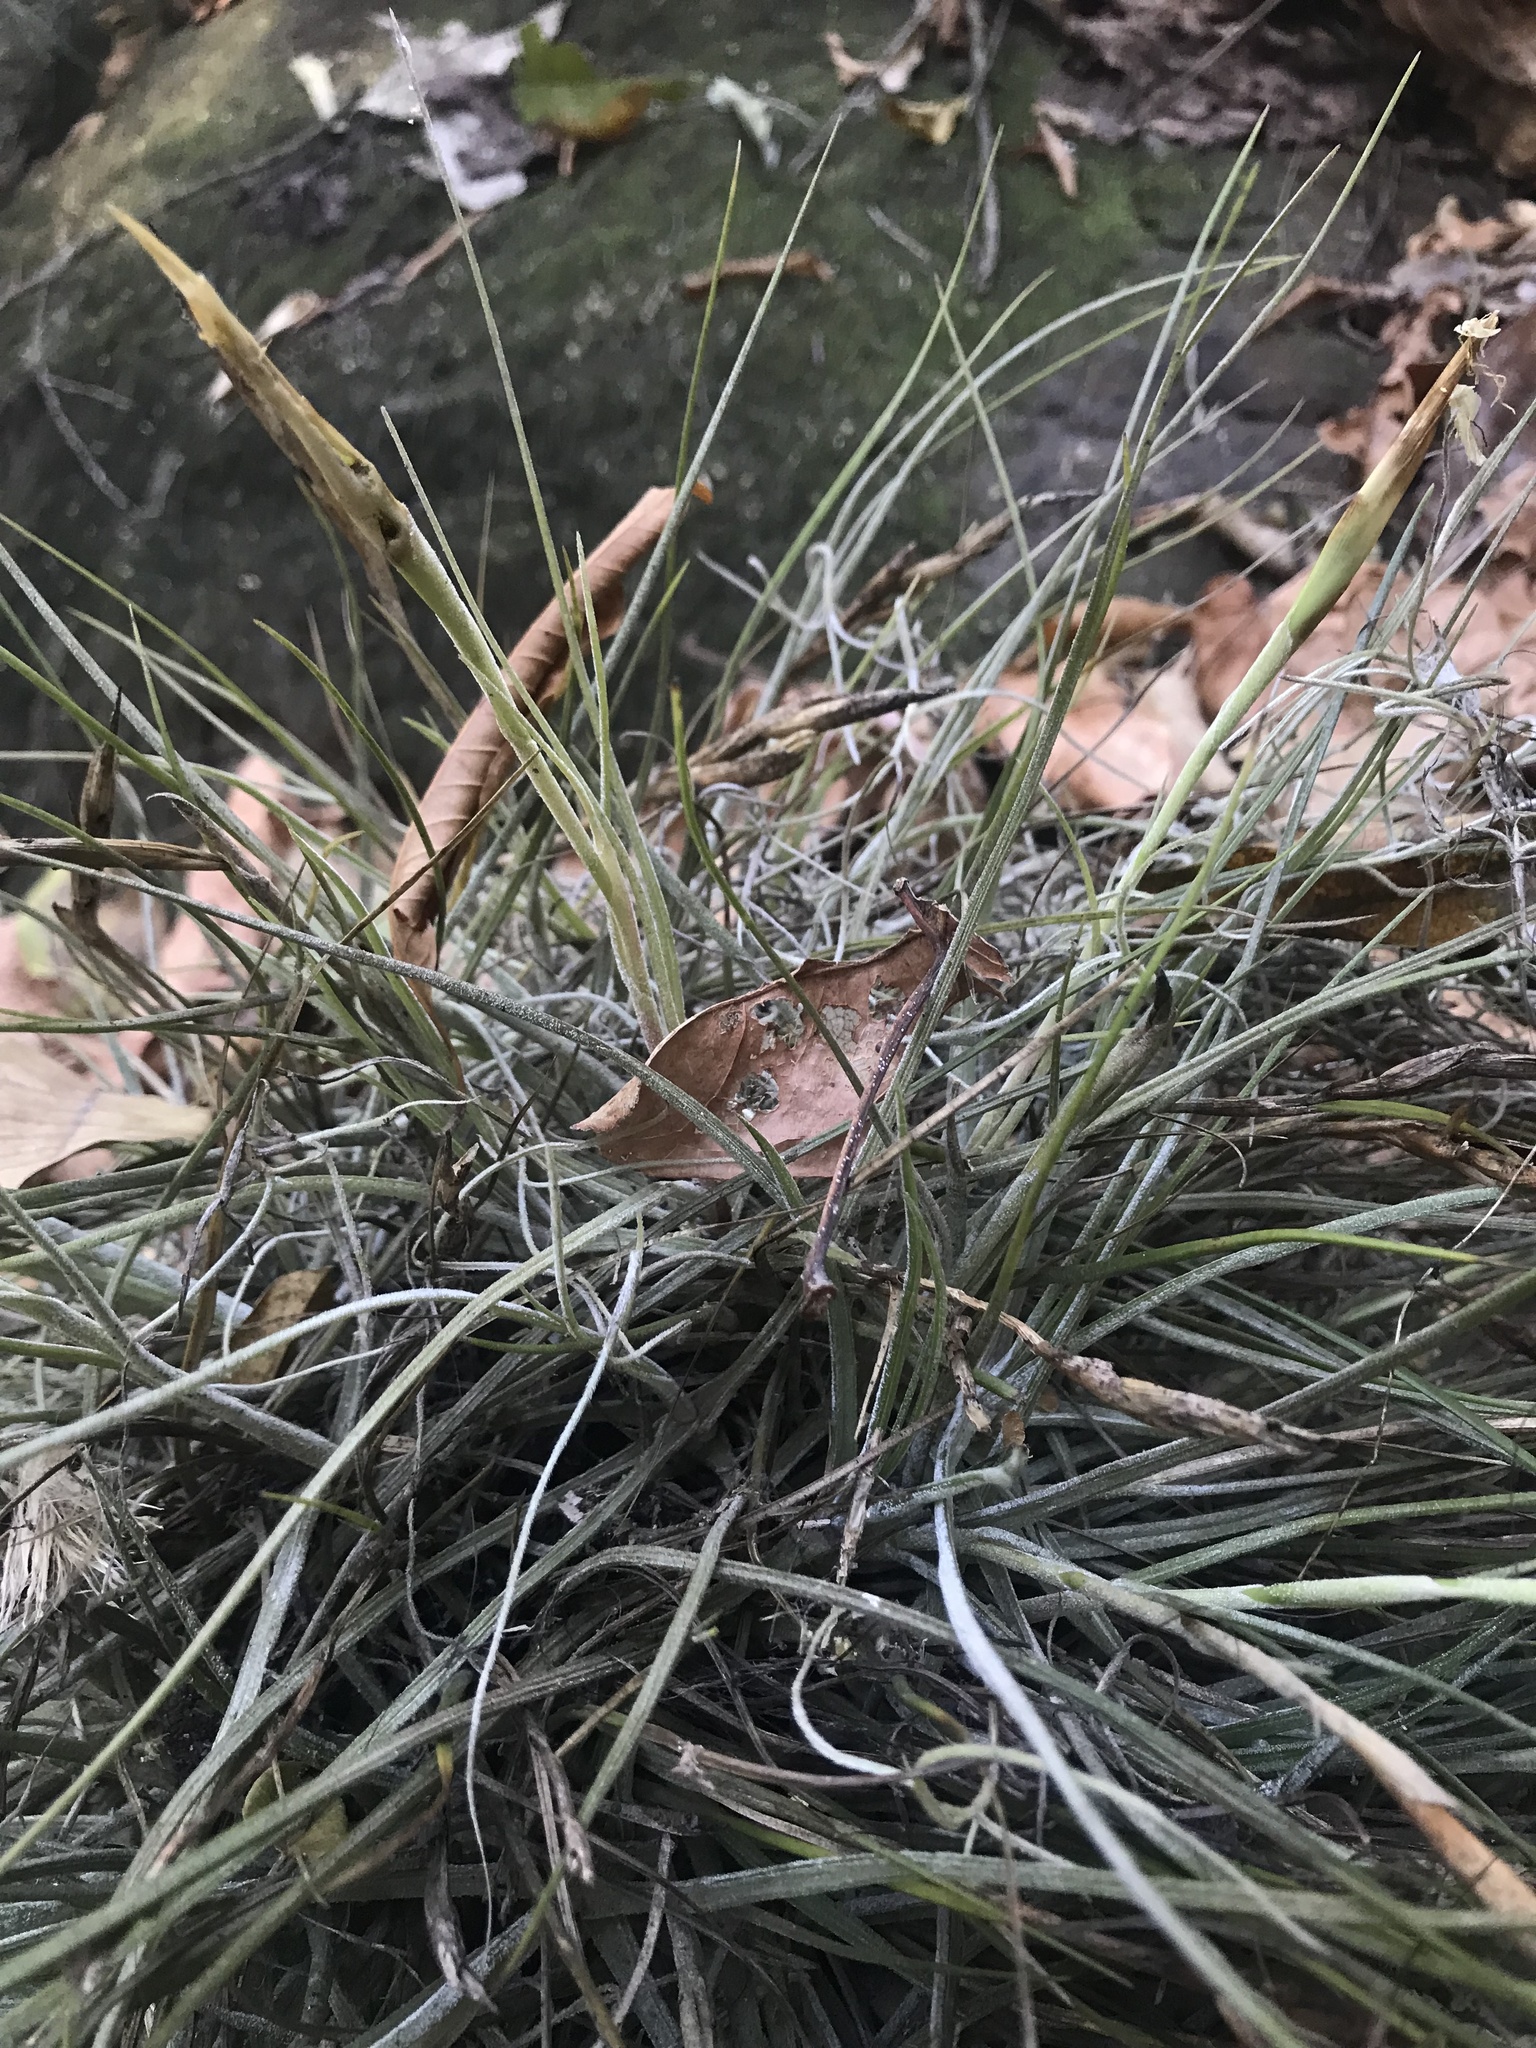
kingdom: Plantae
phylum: Tracheophyta
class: Liliopsida
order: Poales
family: Bromeliaceae
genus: Tillandsia
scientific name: Tillandsia schiedeana
